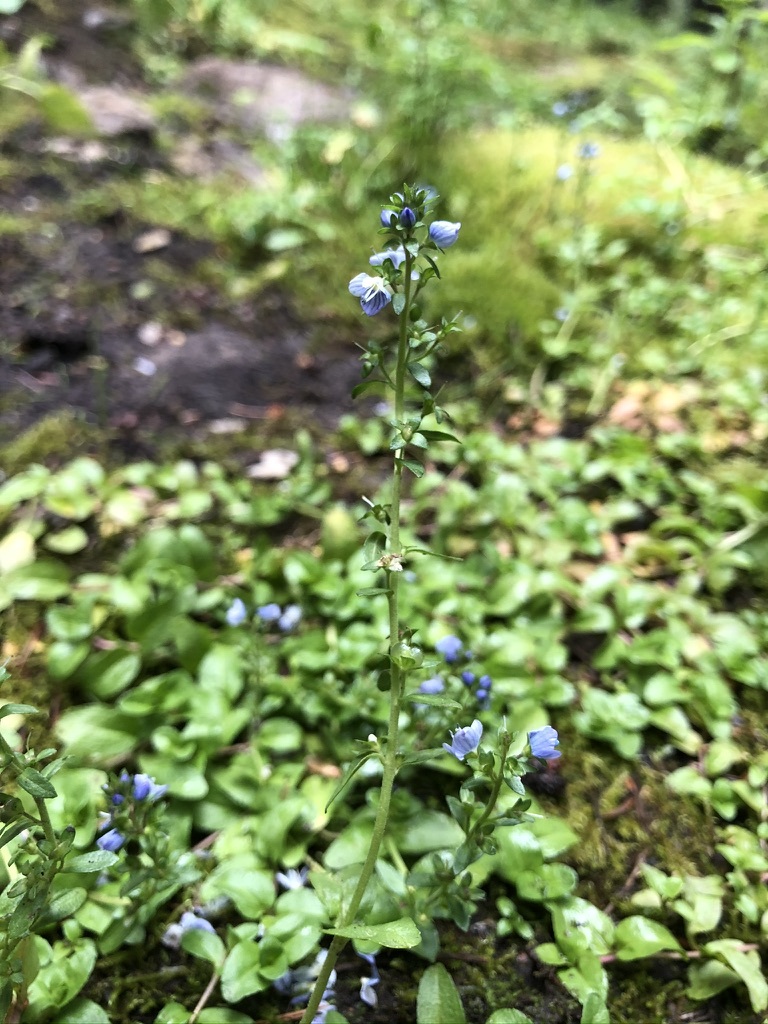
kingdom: Plantae
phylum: Tracheophyta
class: Magnoliopsida
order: Lamiales
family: Plantaginaceae
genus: Veronica
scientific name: Veronica serpyllifolia
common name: Thyme-leaved speedwell
